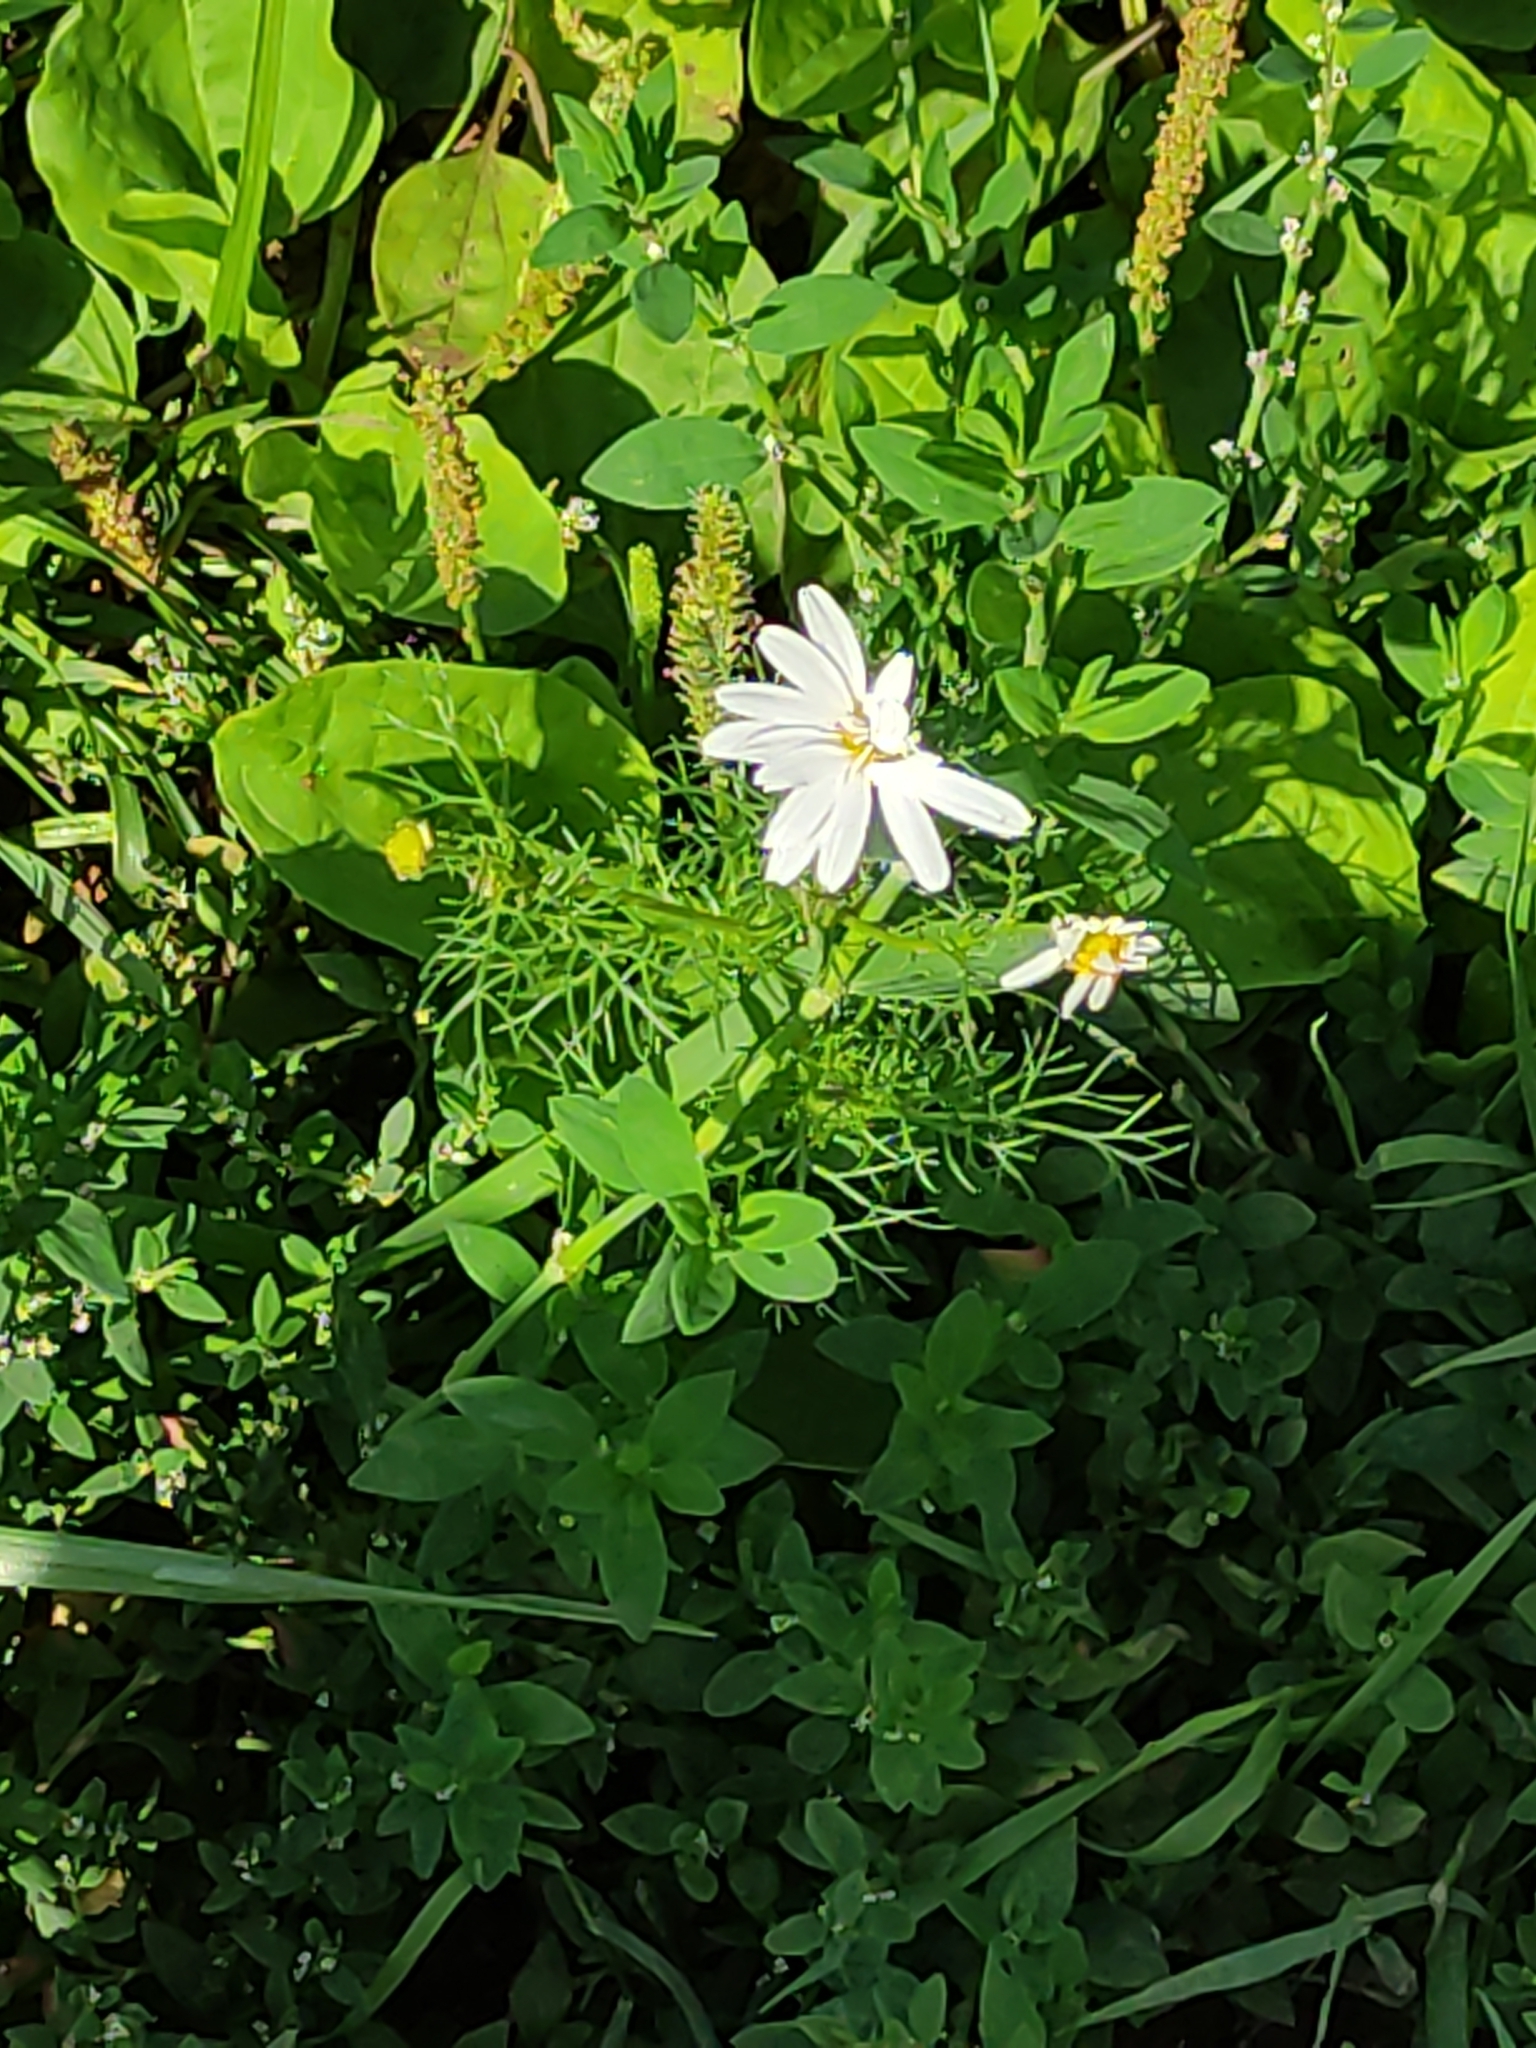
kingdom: Plantae
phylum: Tracheophyta
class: Magnoliopsida
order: Asterales
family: Asteraceae
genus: Tripleurospermum
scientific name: Tripleurospermum inodorum
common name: Scentless mayweed
